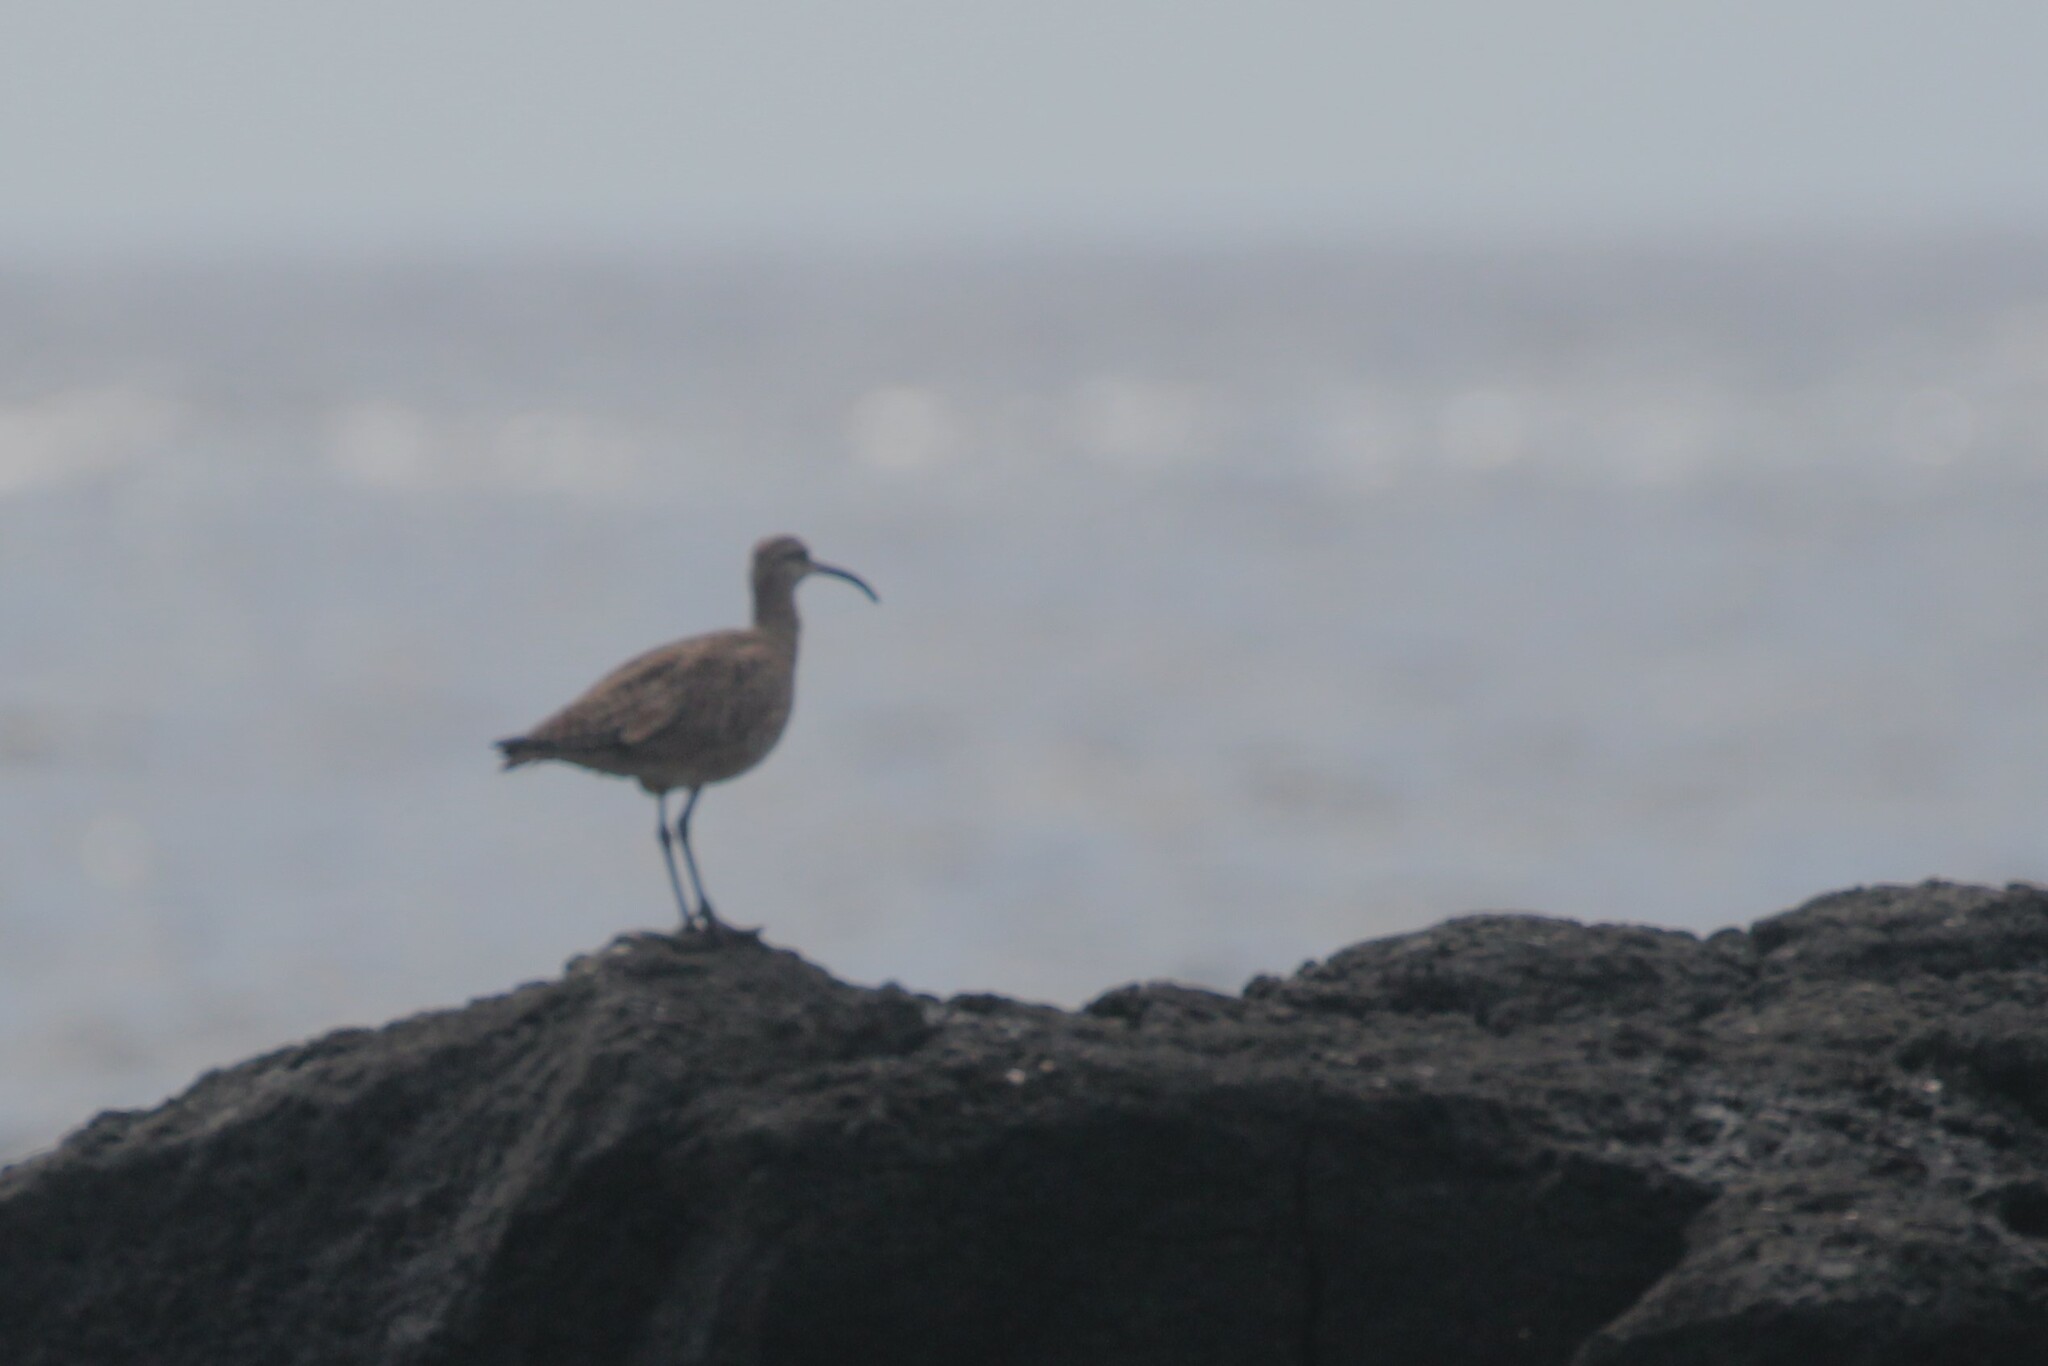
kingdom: Animalia
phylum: Chordata
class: Aves
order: Charadriiformes
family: Scolopacidae
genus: Numenius
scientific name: Numenius phaeopus
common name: Whimbrel
